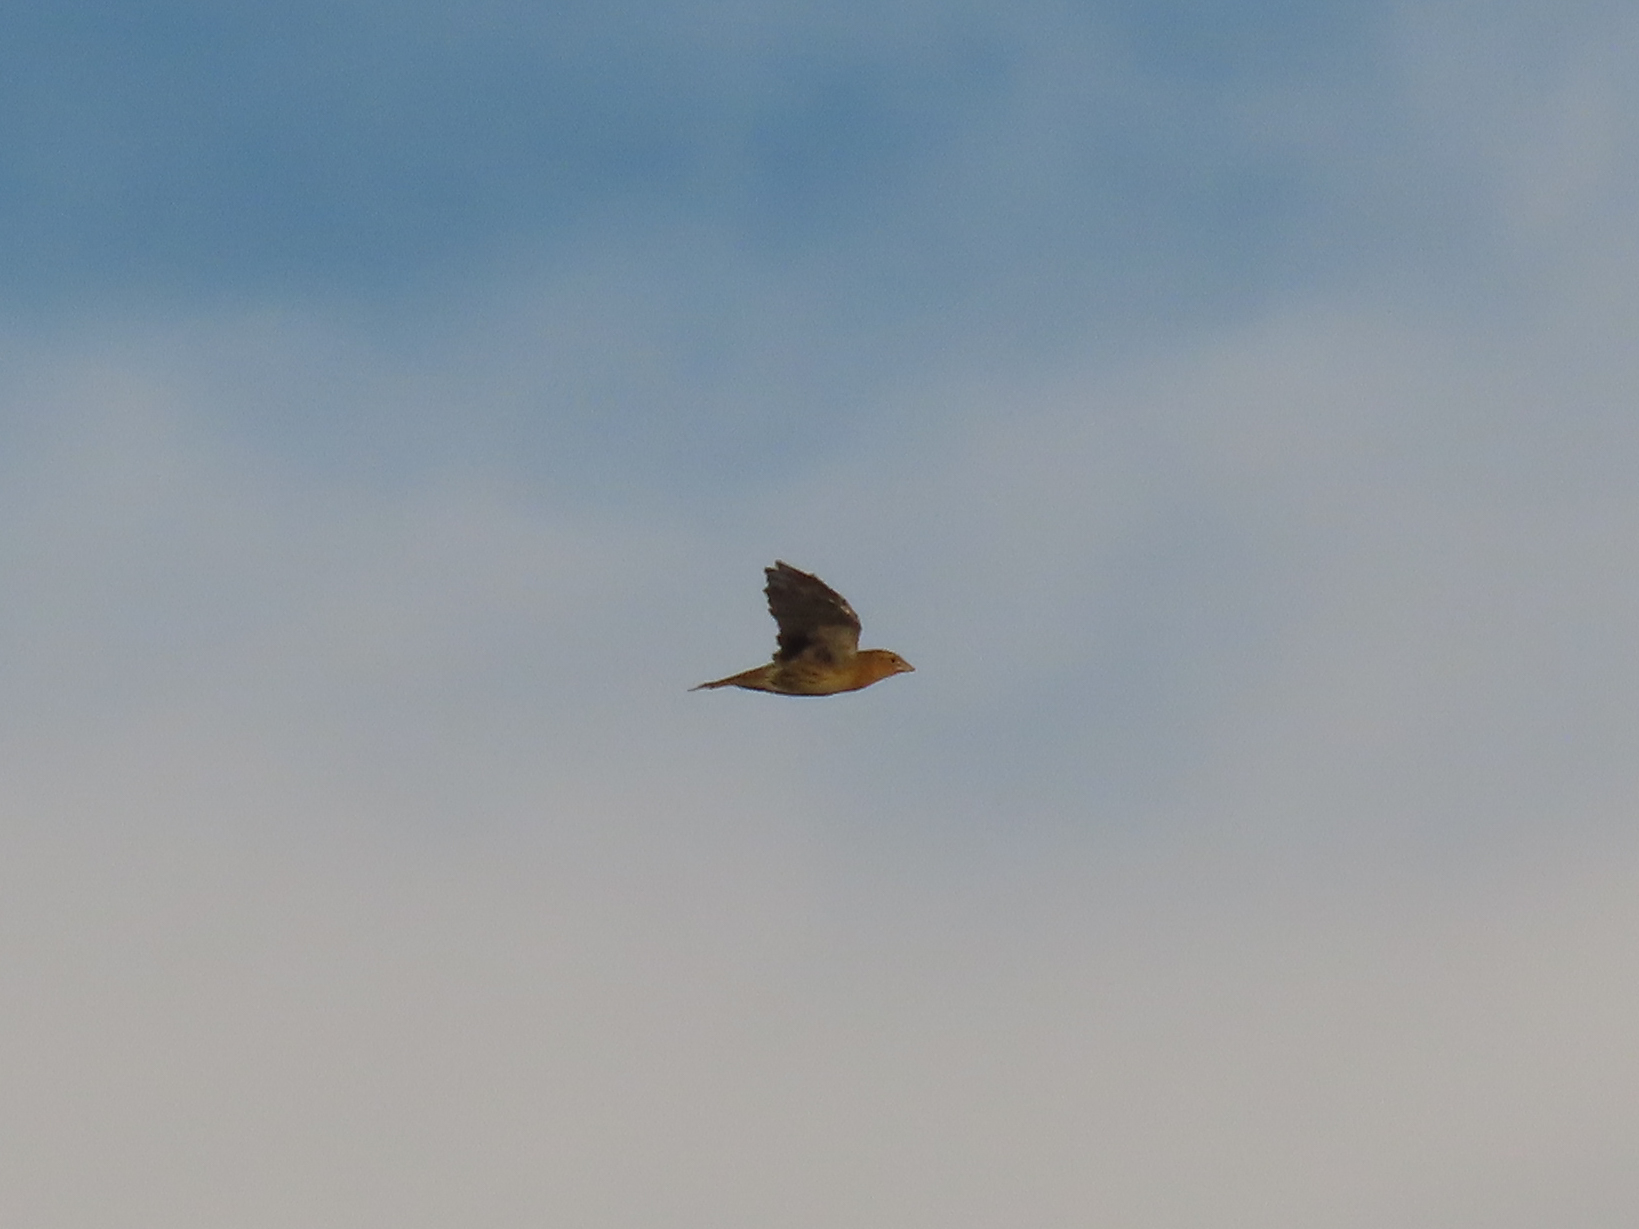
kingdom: Animalia
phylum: Chordata
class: Aves
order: Passeriformes
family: Icteridae
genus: Dolichonyx
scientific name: Dolichonyx oryzivorus
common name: Bobolink
